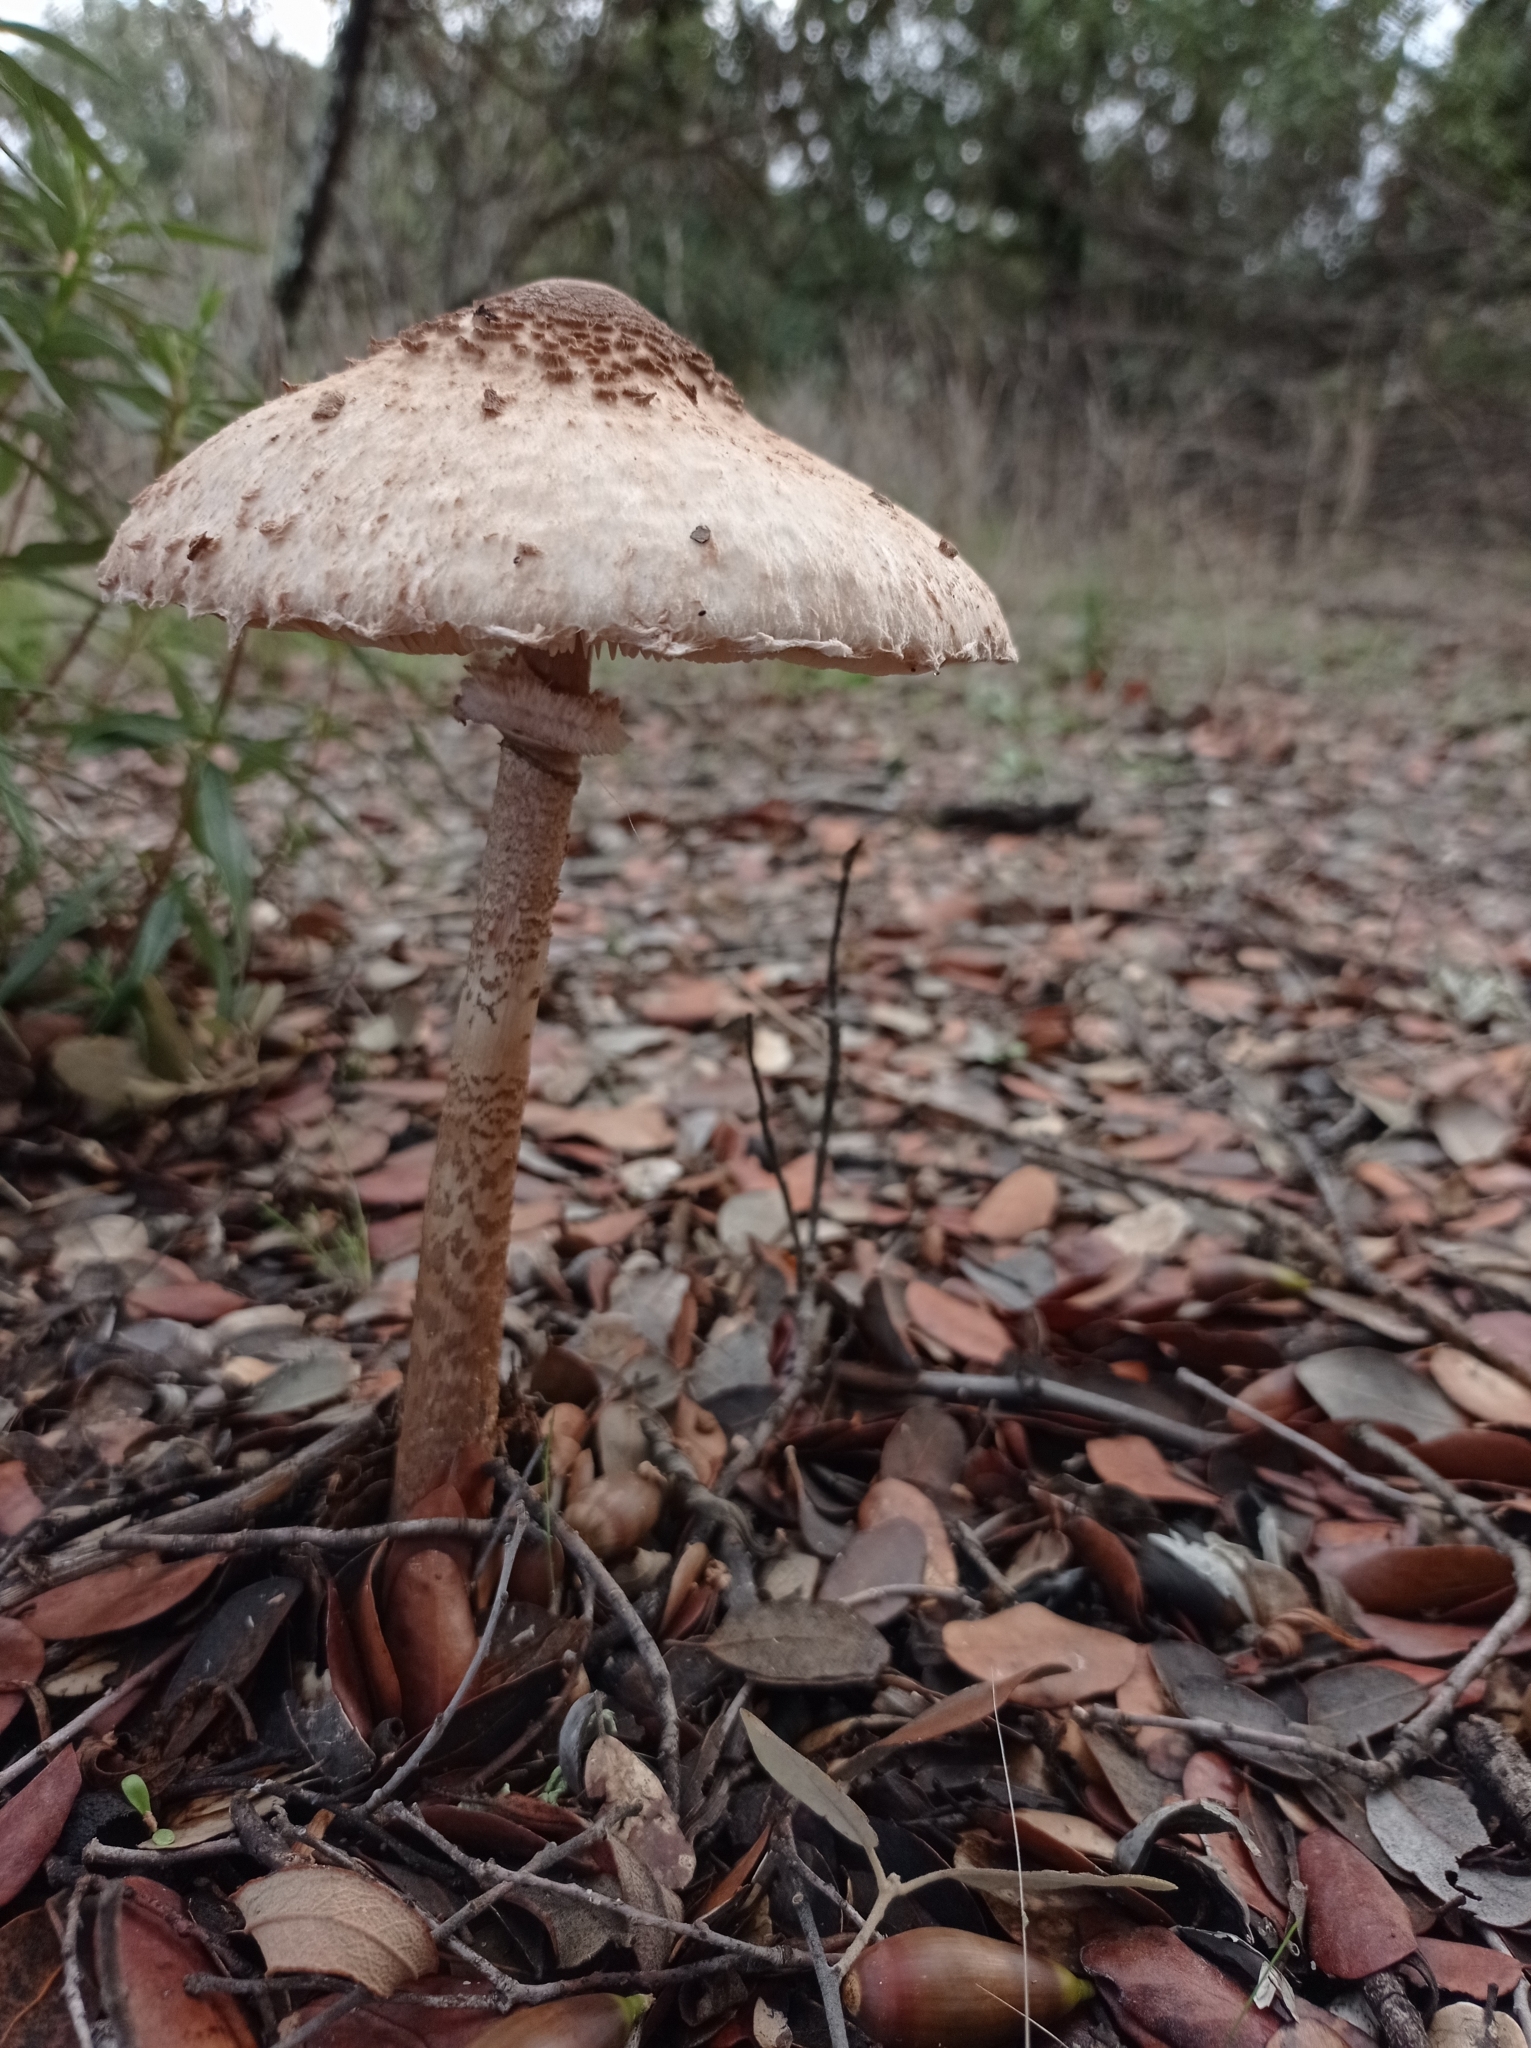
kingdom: Fungi
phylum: Basidiomycota
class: Agaricomycetes
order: Agaricales
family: Agaricaceae
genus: Macrolepiota
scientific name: Macrolepiota procera
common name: Parasol
